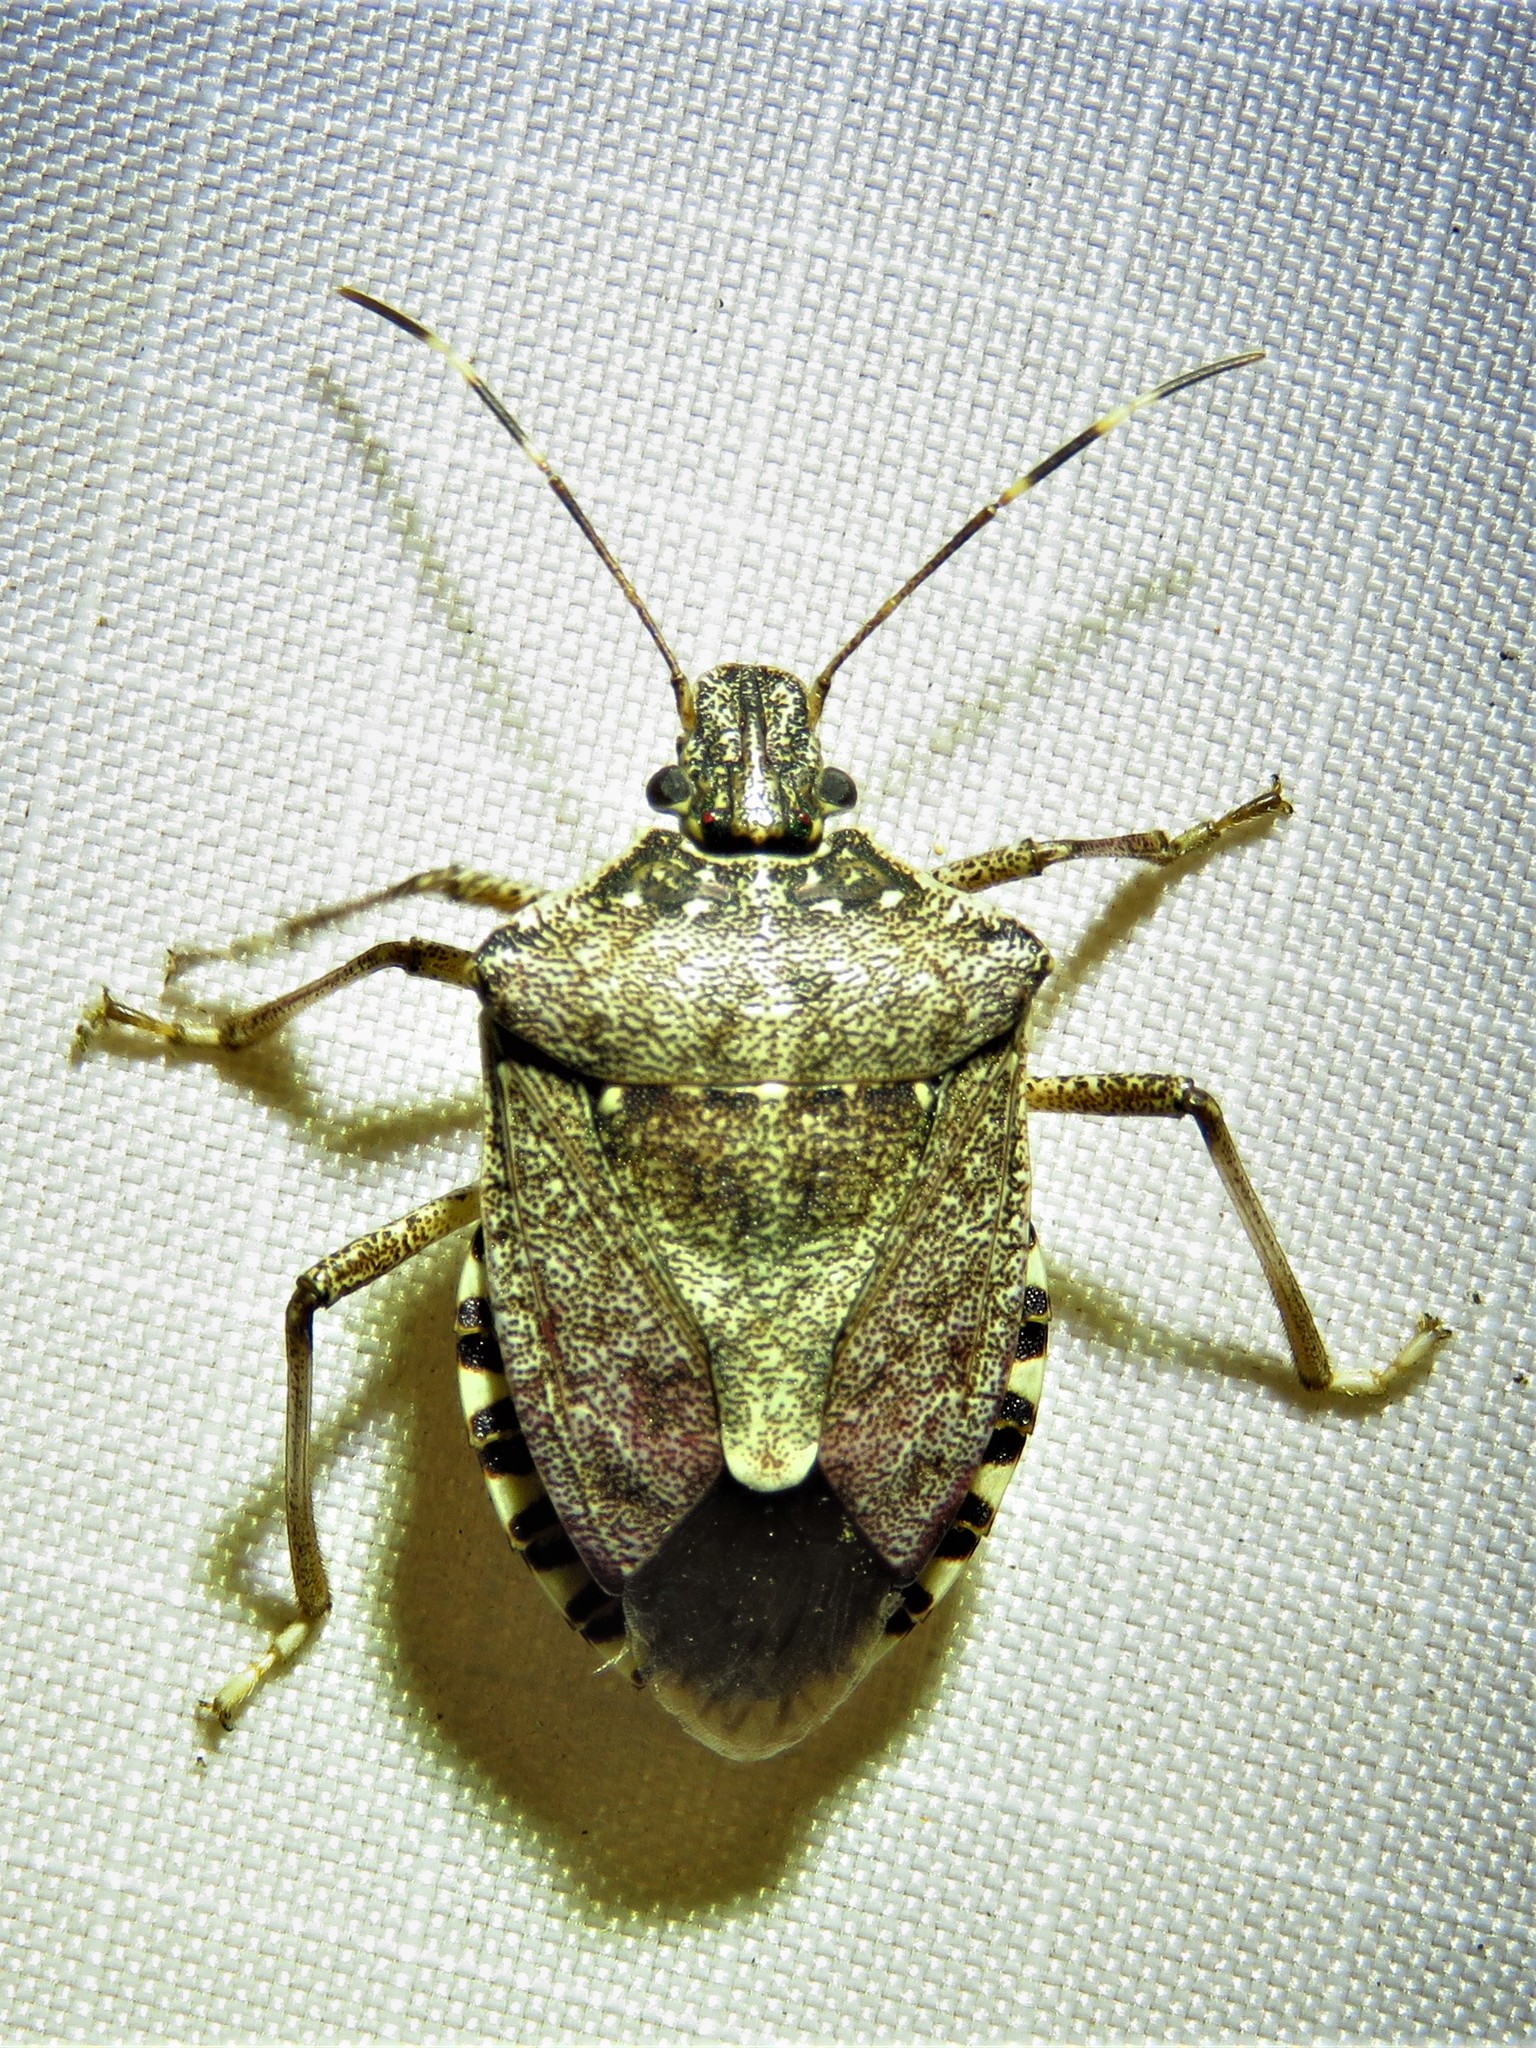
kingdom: Animalia
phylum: Arthropoda
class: Insecta
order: Hemiptera
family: Pentatomidae
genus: Halyomorpha
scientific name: Halyomorpha halys
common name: Brown marmorated stink bug
